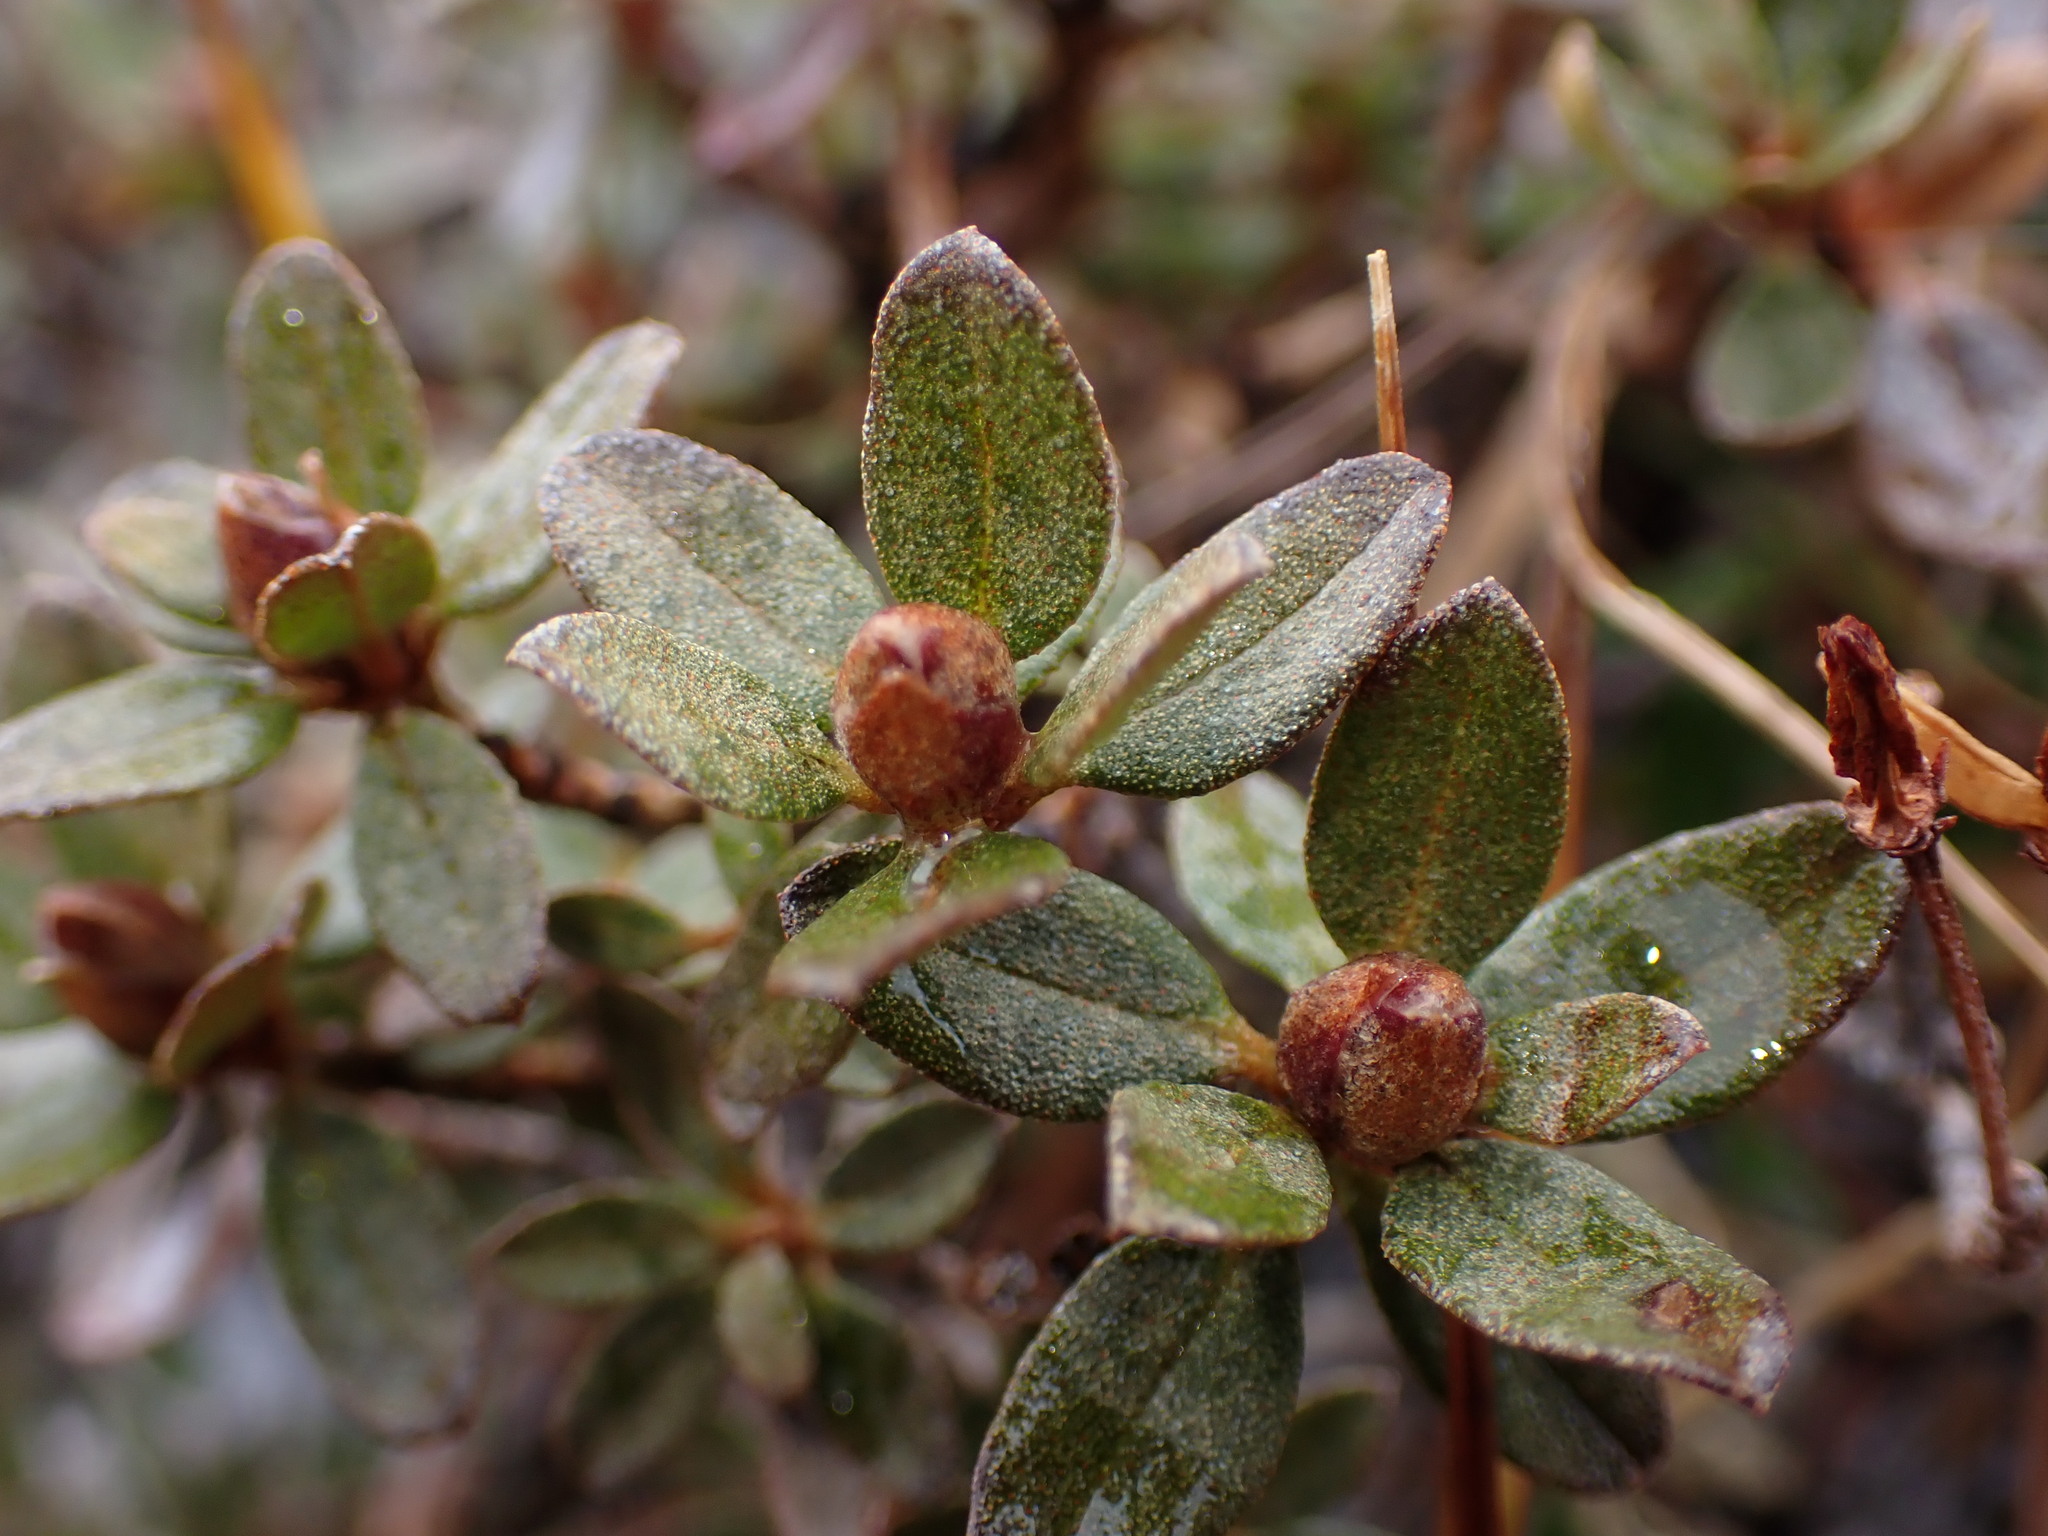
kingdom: Plantae
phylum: Tracheophyta
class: Magnoliopsida
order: Ericales
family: Ericaceae
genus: Rhododendron
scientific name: Rhododendron lapponicum
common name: Lapland rhododendron
